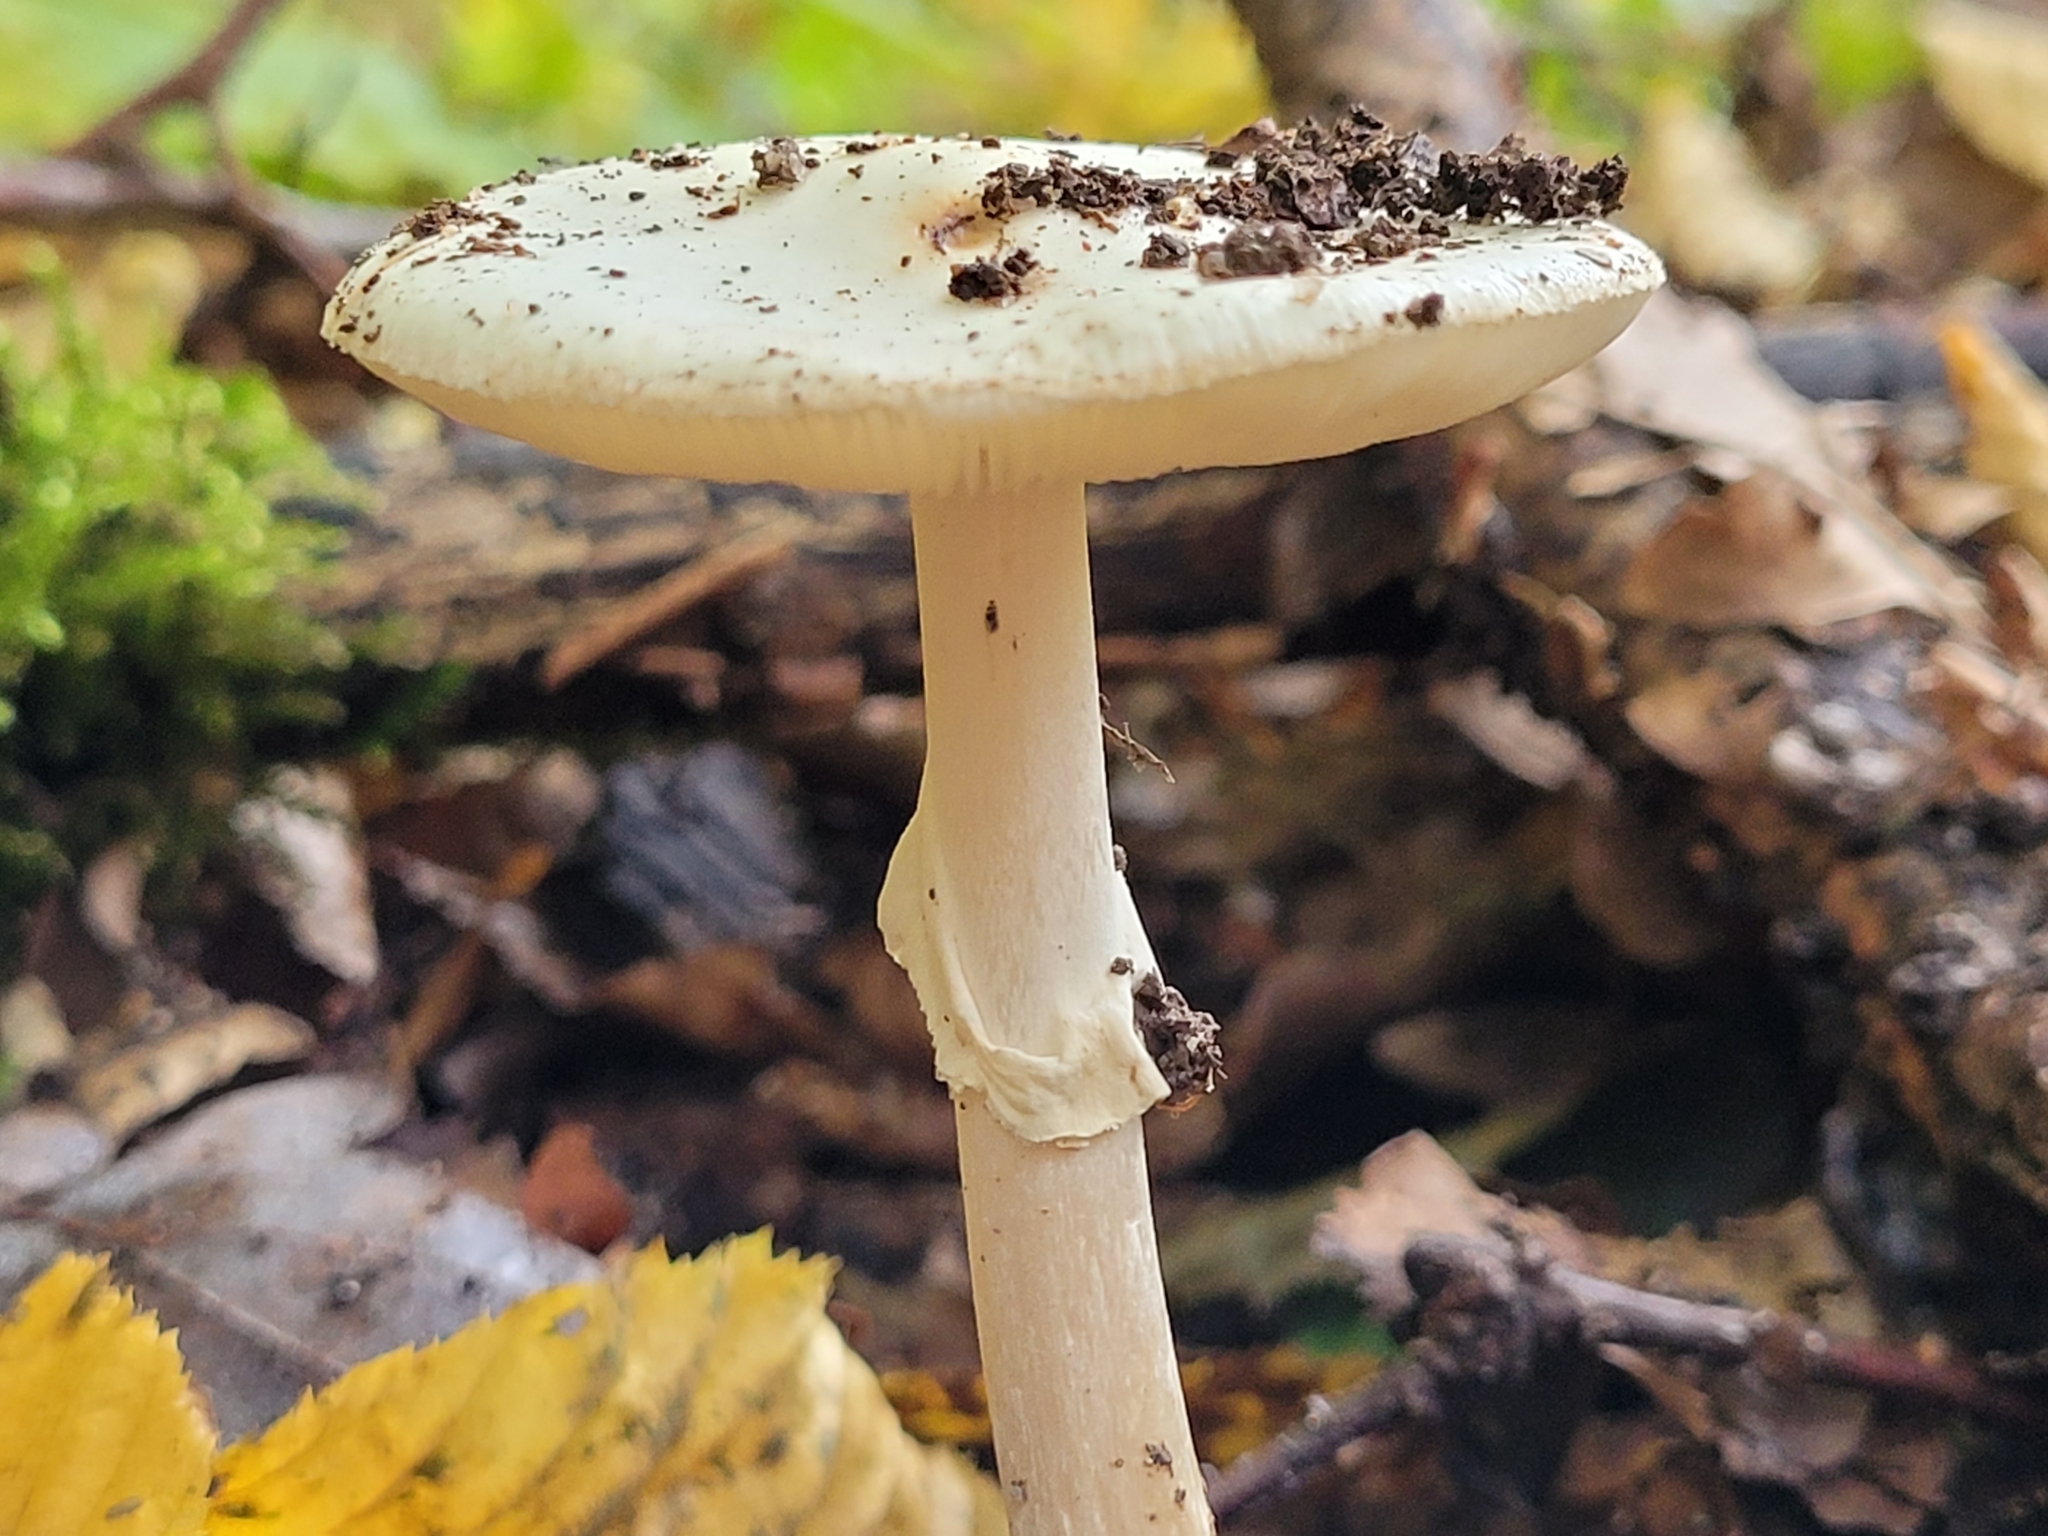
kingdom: Fungi
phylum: Basidiomycota
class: Agaricomycetes
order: Agaricales
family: Amanitaceae
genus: Amanita
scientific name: Amanita citrina
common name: False death-cap
